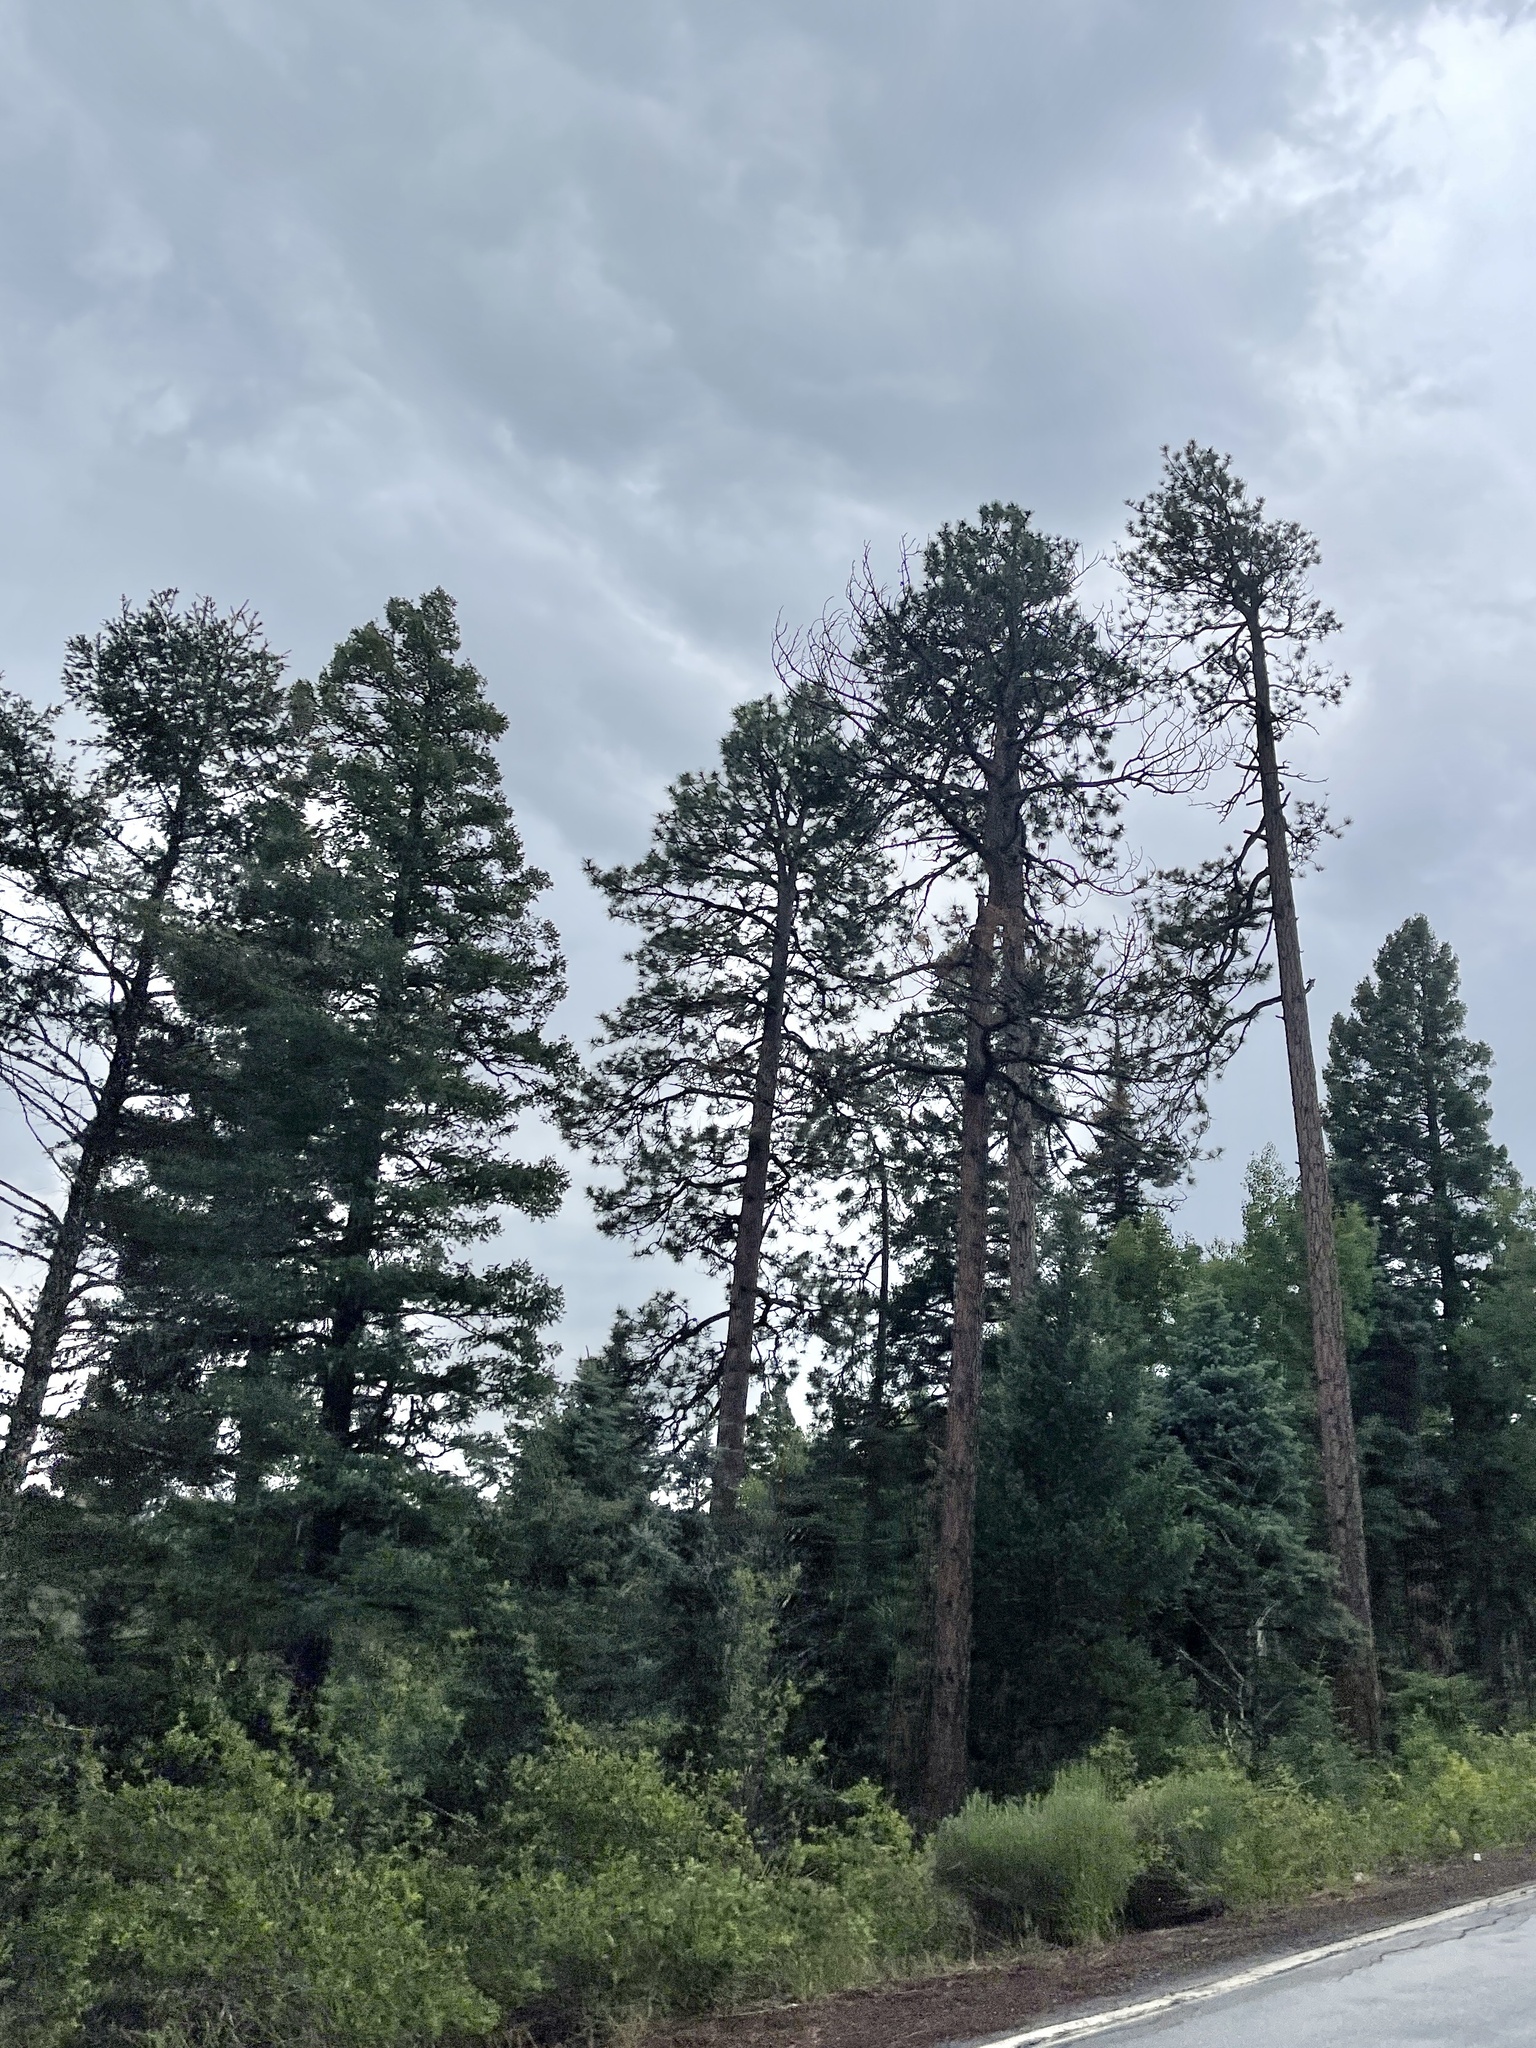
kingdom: Plantae
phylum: Tracheophyta
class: Pinopsida
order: Pinales
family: Pinaceae
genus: Pinus
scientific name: Pinus ponderosa
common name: Western yellow-pine
